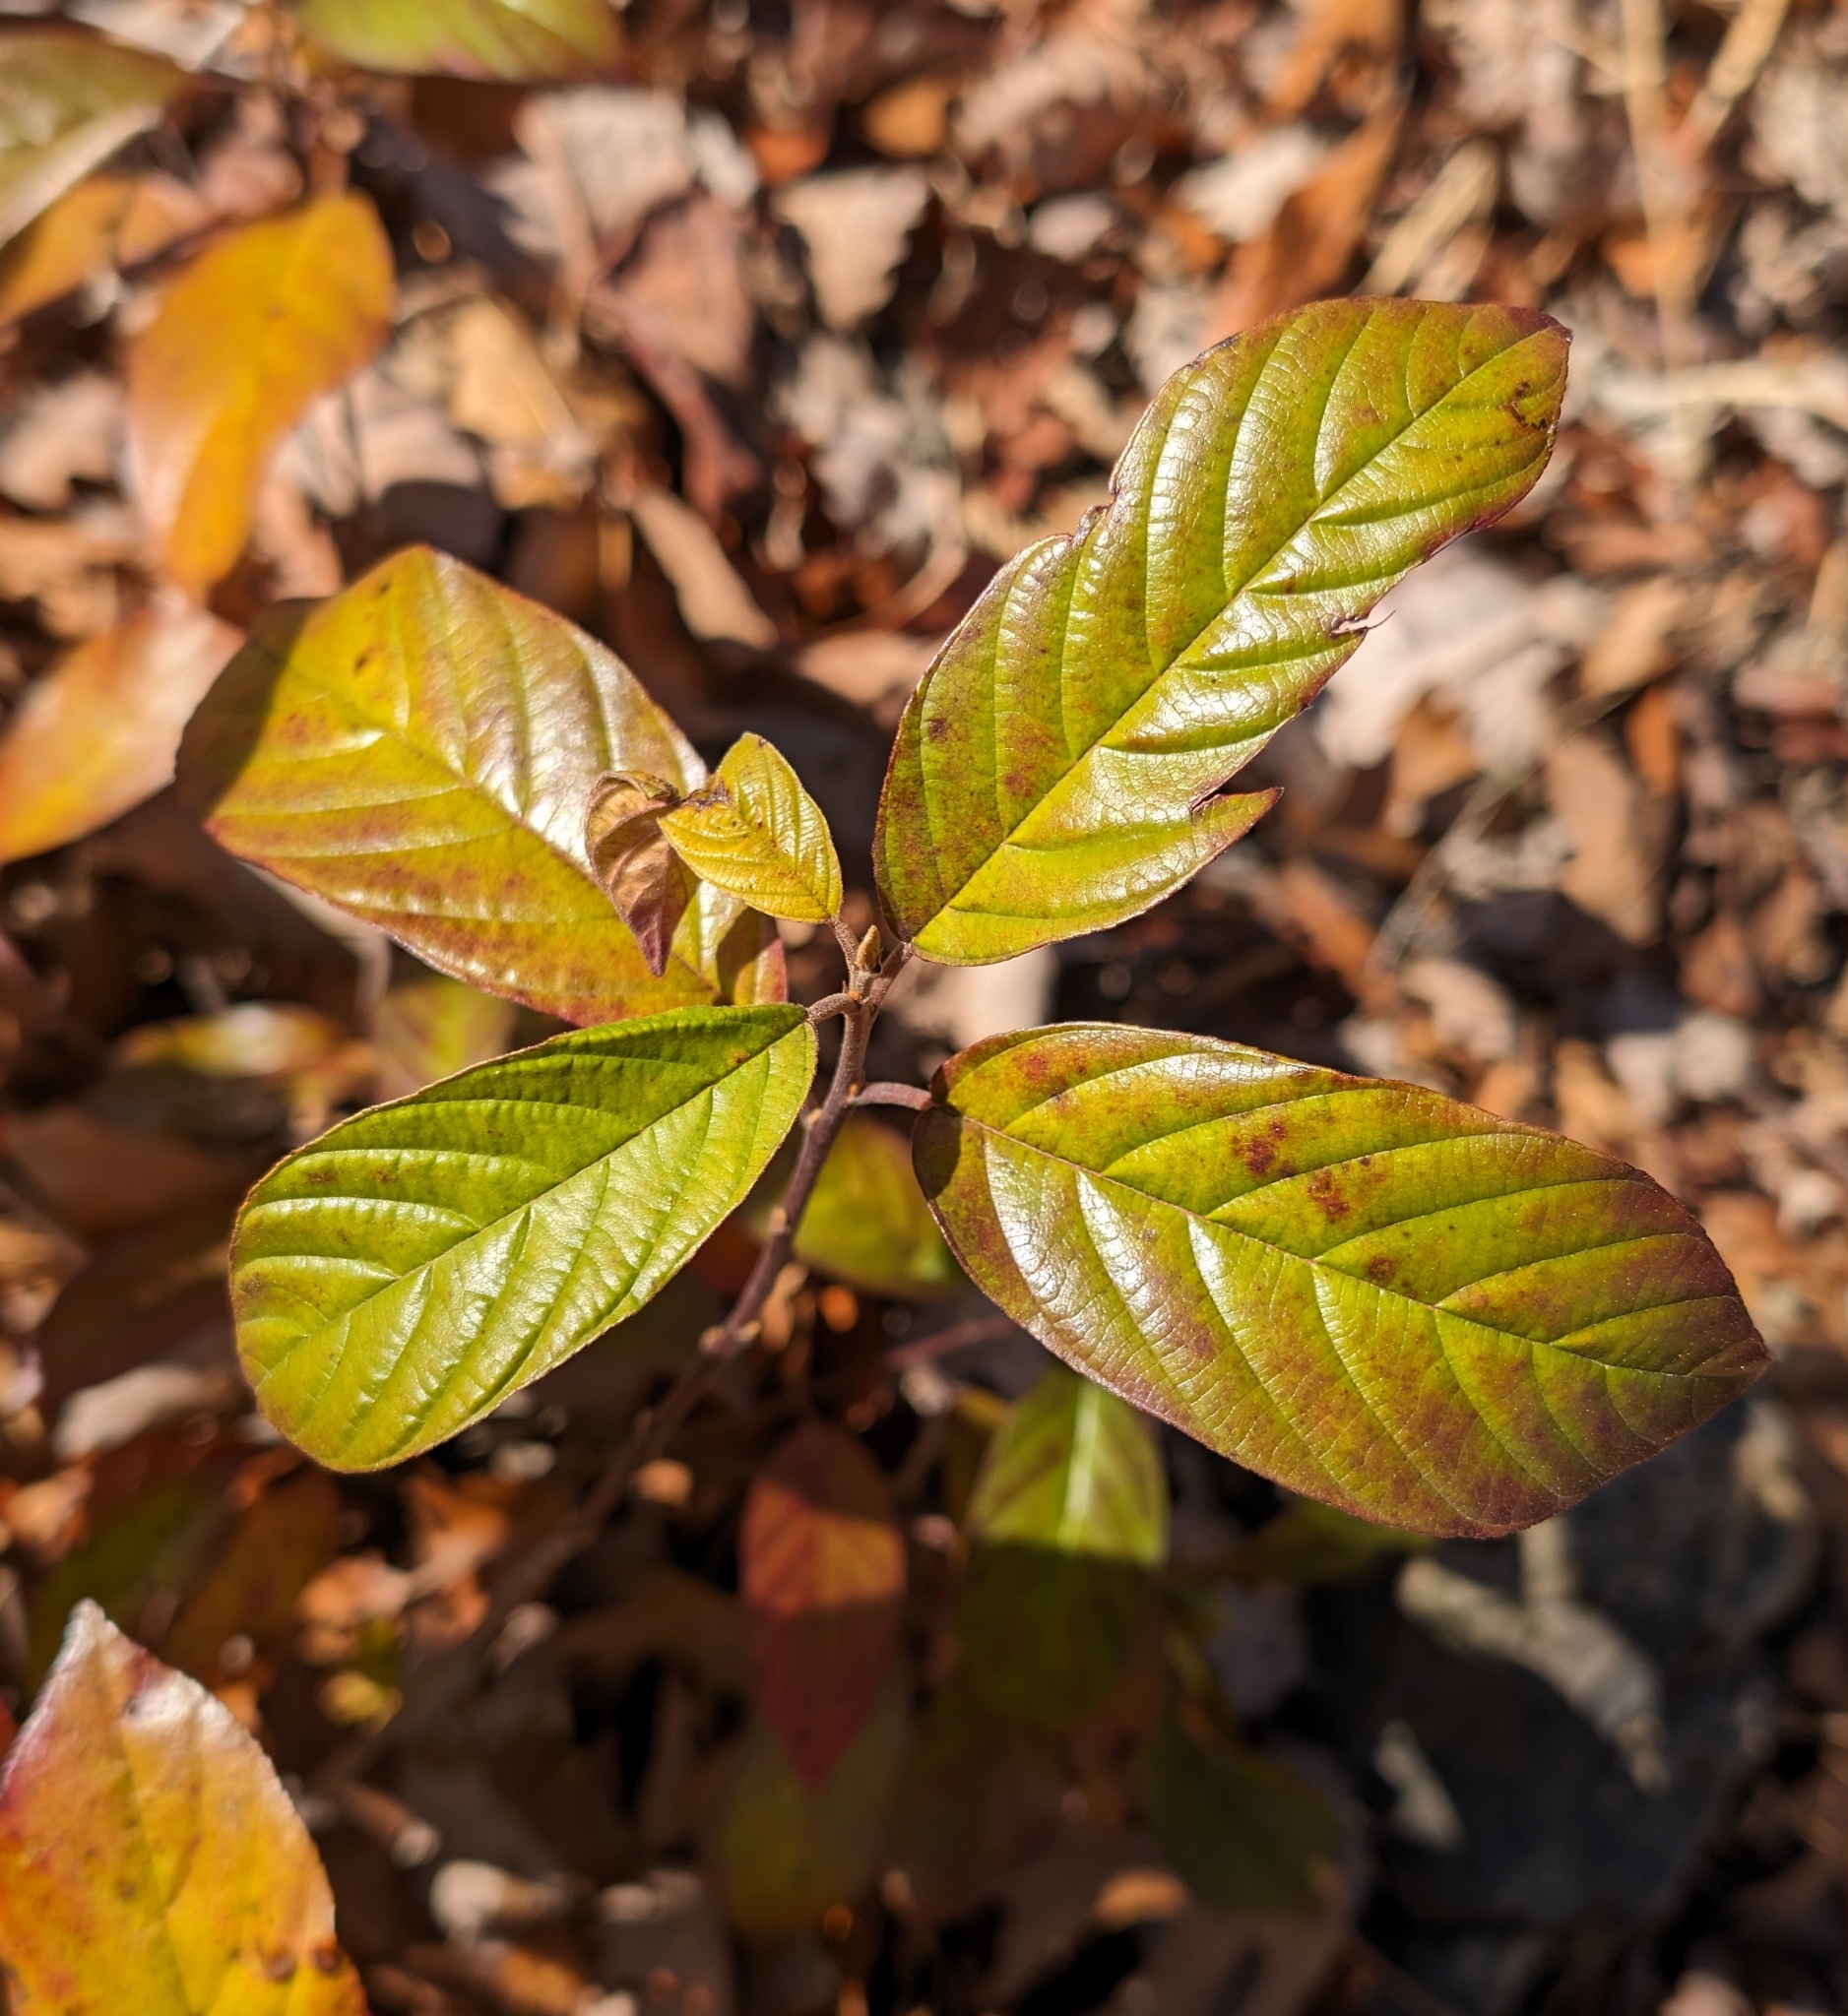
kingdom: Plantae
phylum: Tracheophyta
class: Magnoliopsida
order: Rosales
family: Rhamnaceae
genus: Frangula
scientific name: Frangula caroliniana
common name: Carolina buckthorn
